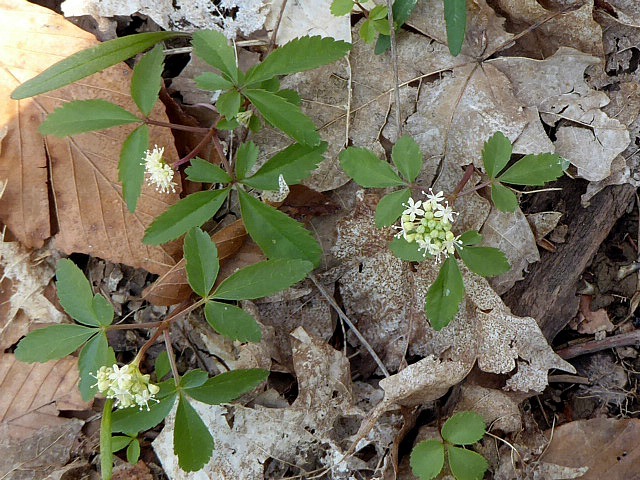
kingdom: Plantae
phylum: Tracheophyta
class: Magnoliopsida
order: Apiales
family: Araliaceae
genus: Panax
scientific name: Panax trifolius
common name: Dwarf ginseng
